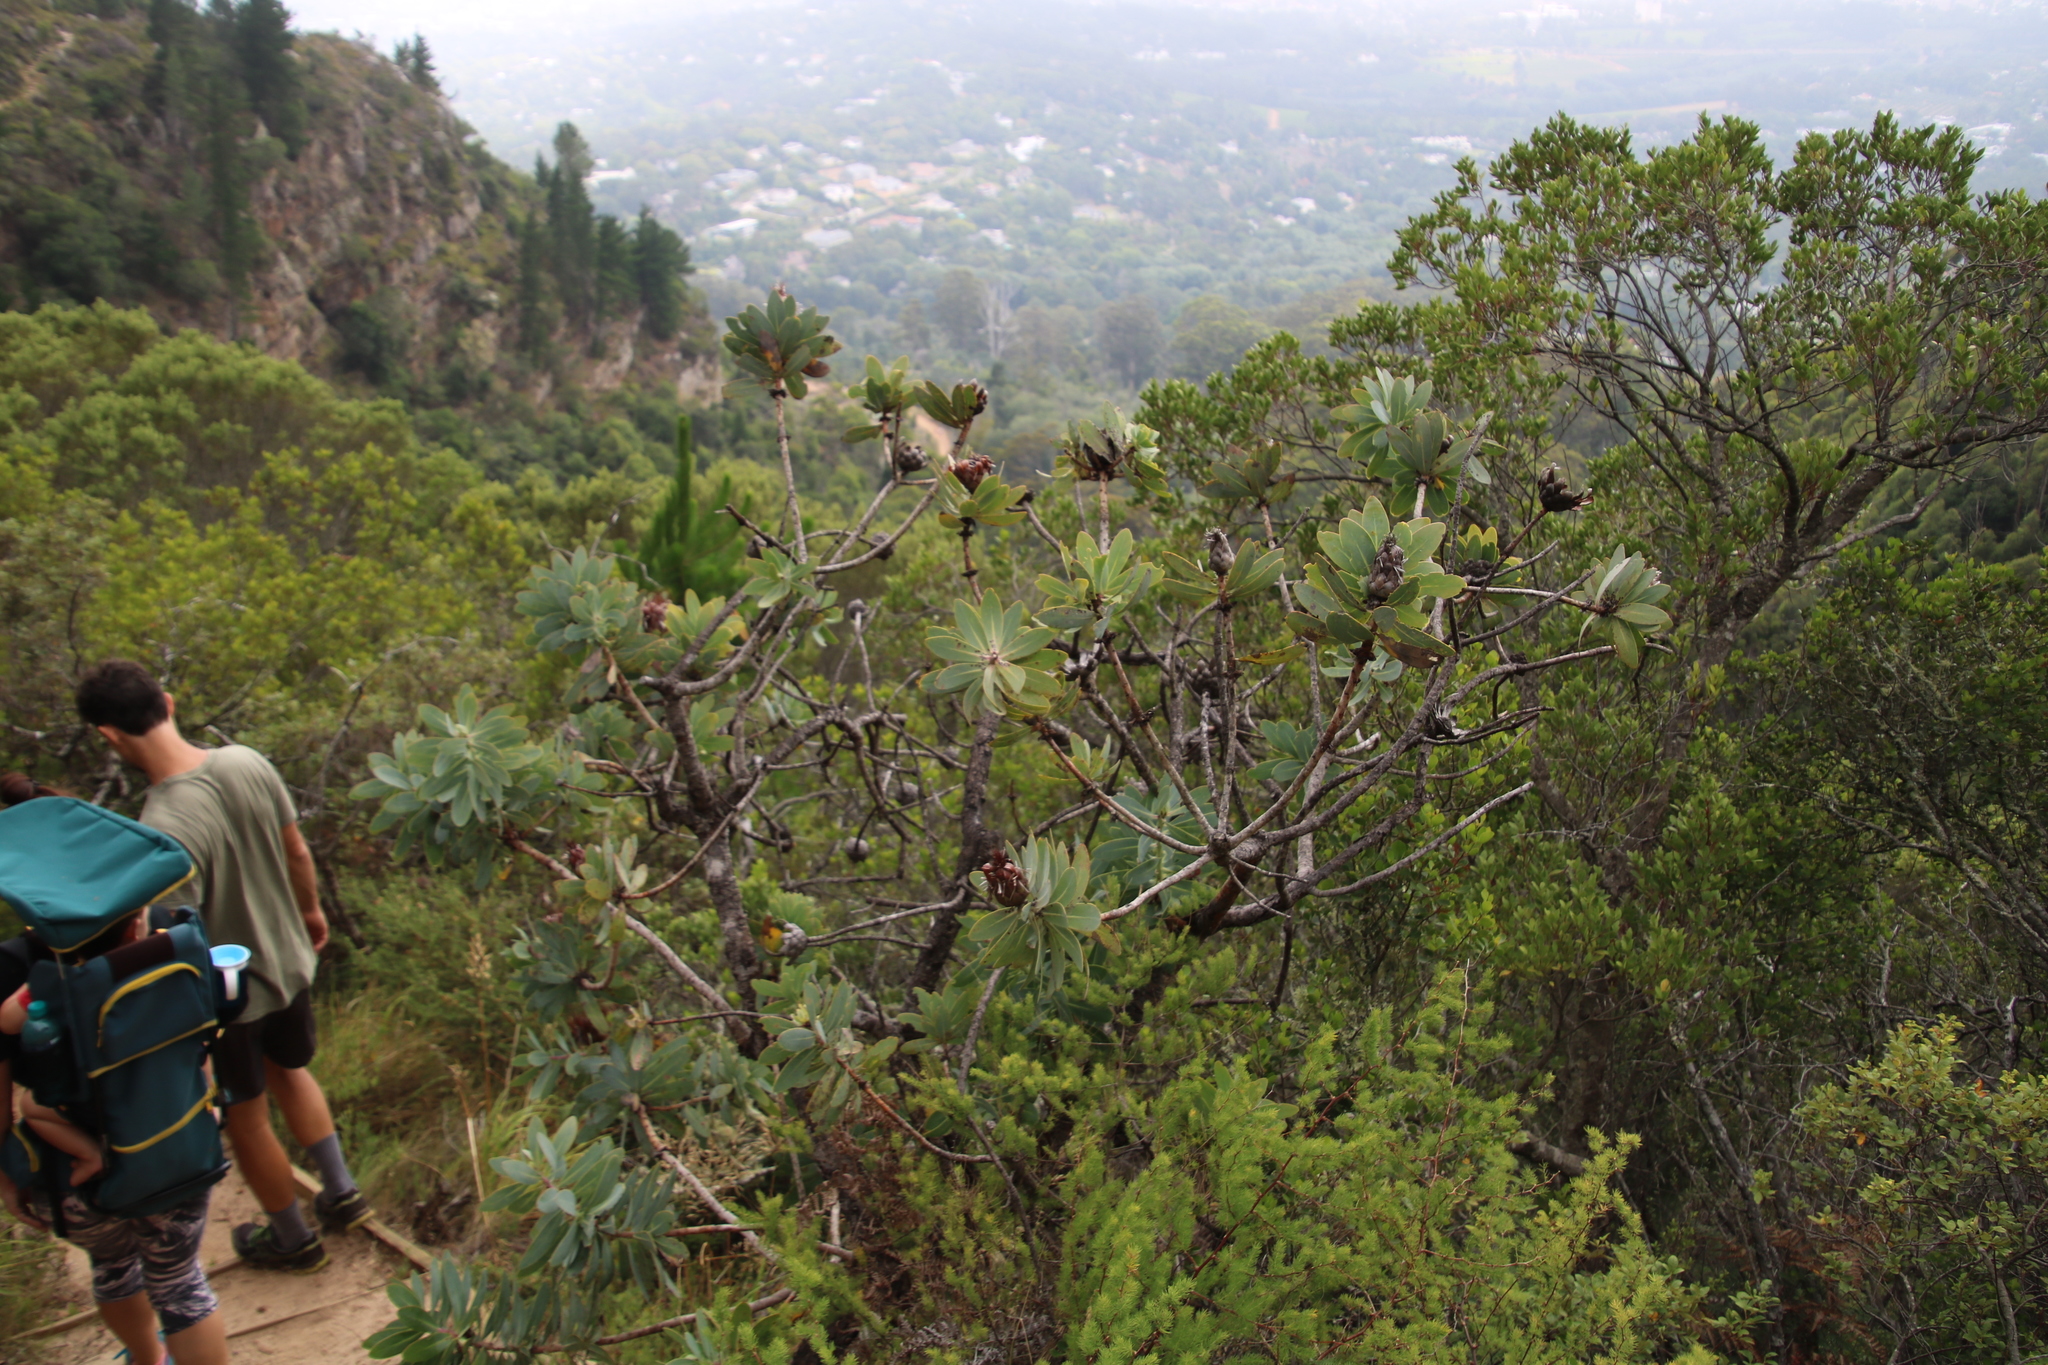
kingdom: Plantae
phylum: Tracheophyta
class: Magnoliopsida
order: Proteales
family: Proteaceae
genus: Protea
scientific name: Protea nitida
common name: Tree protea
